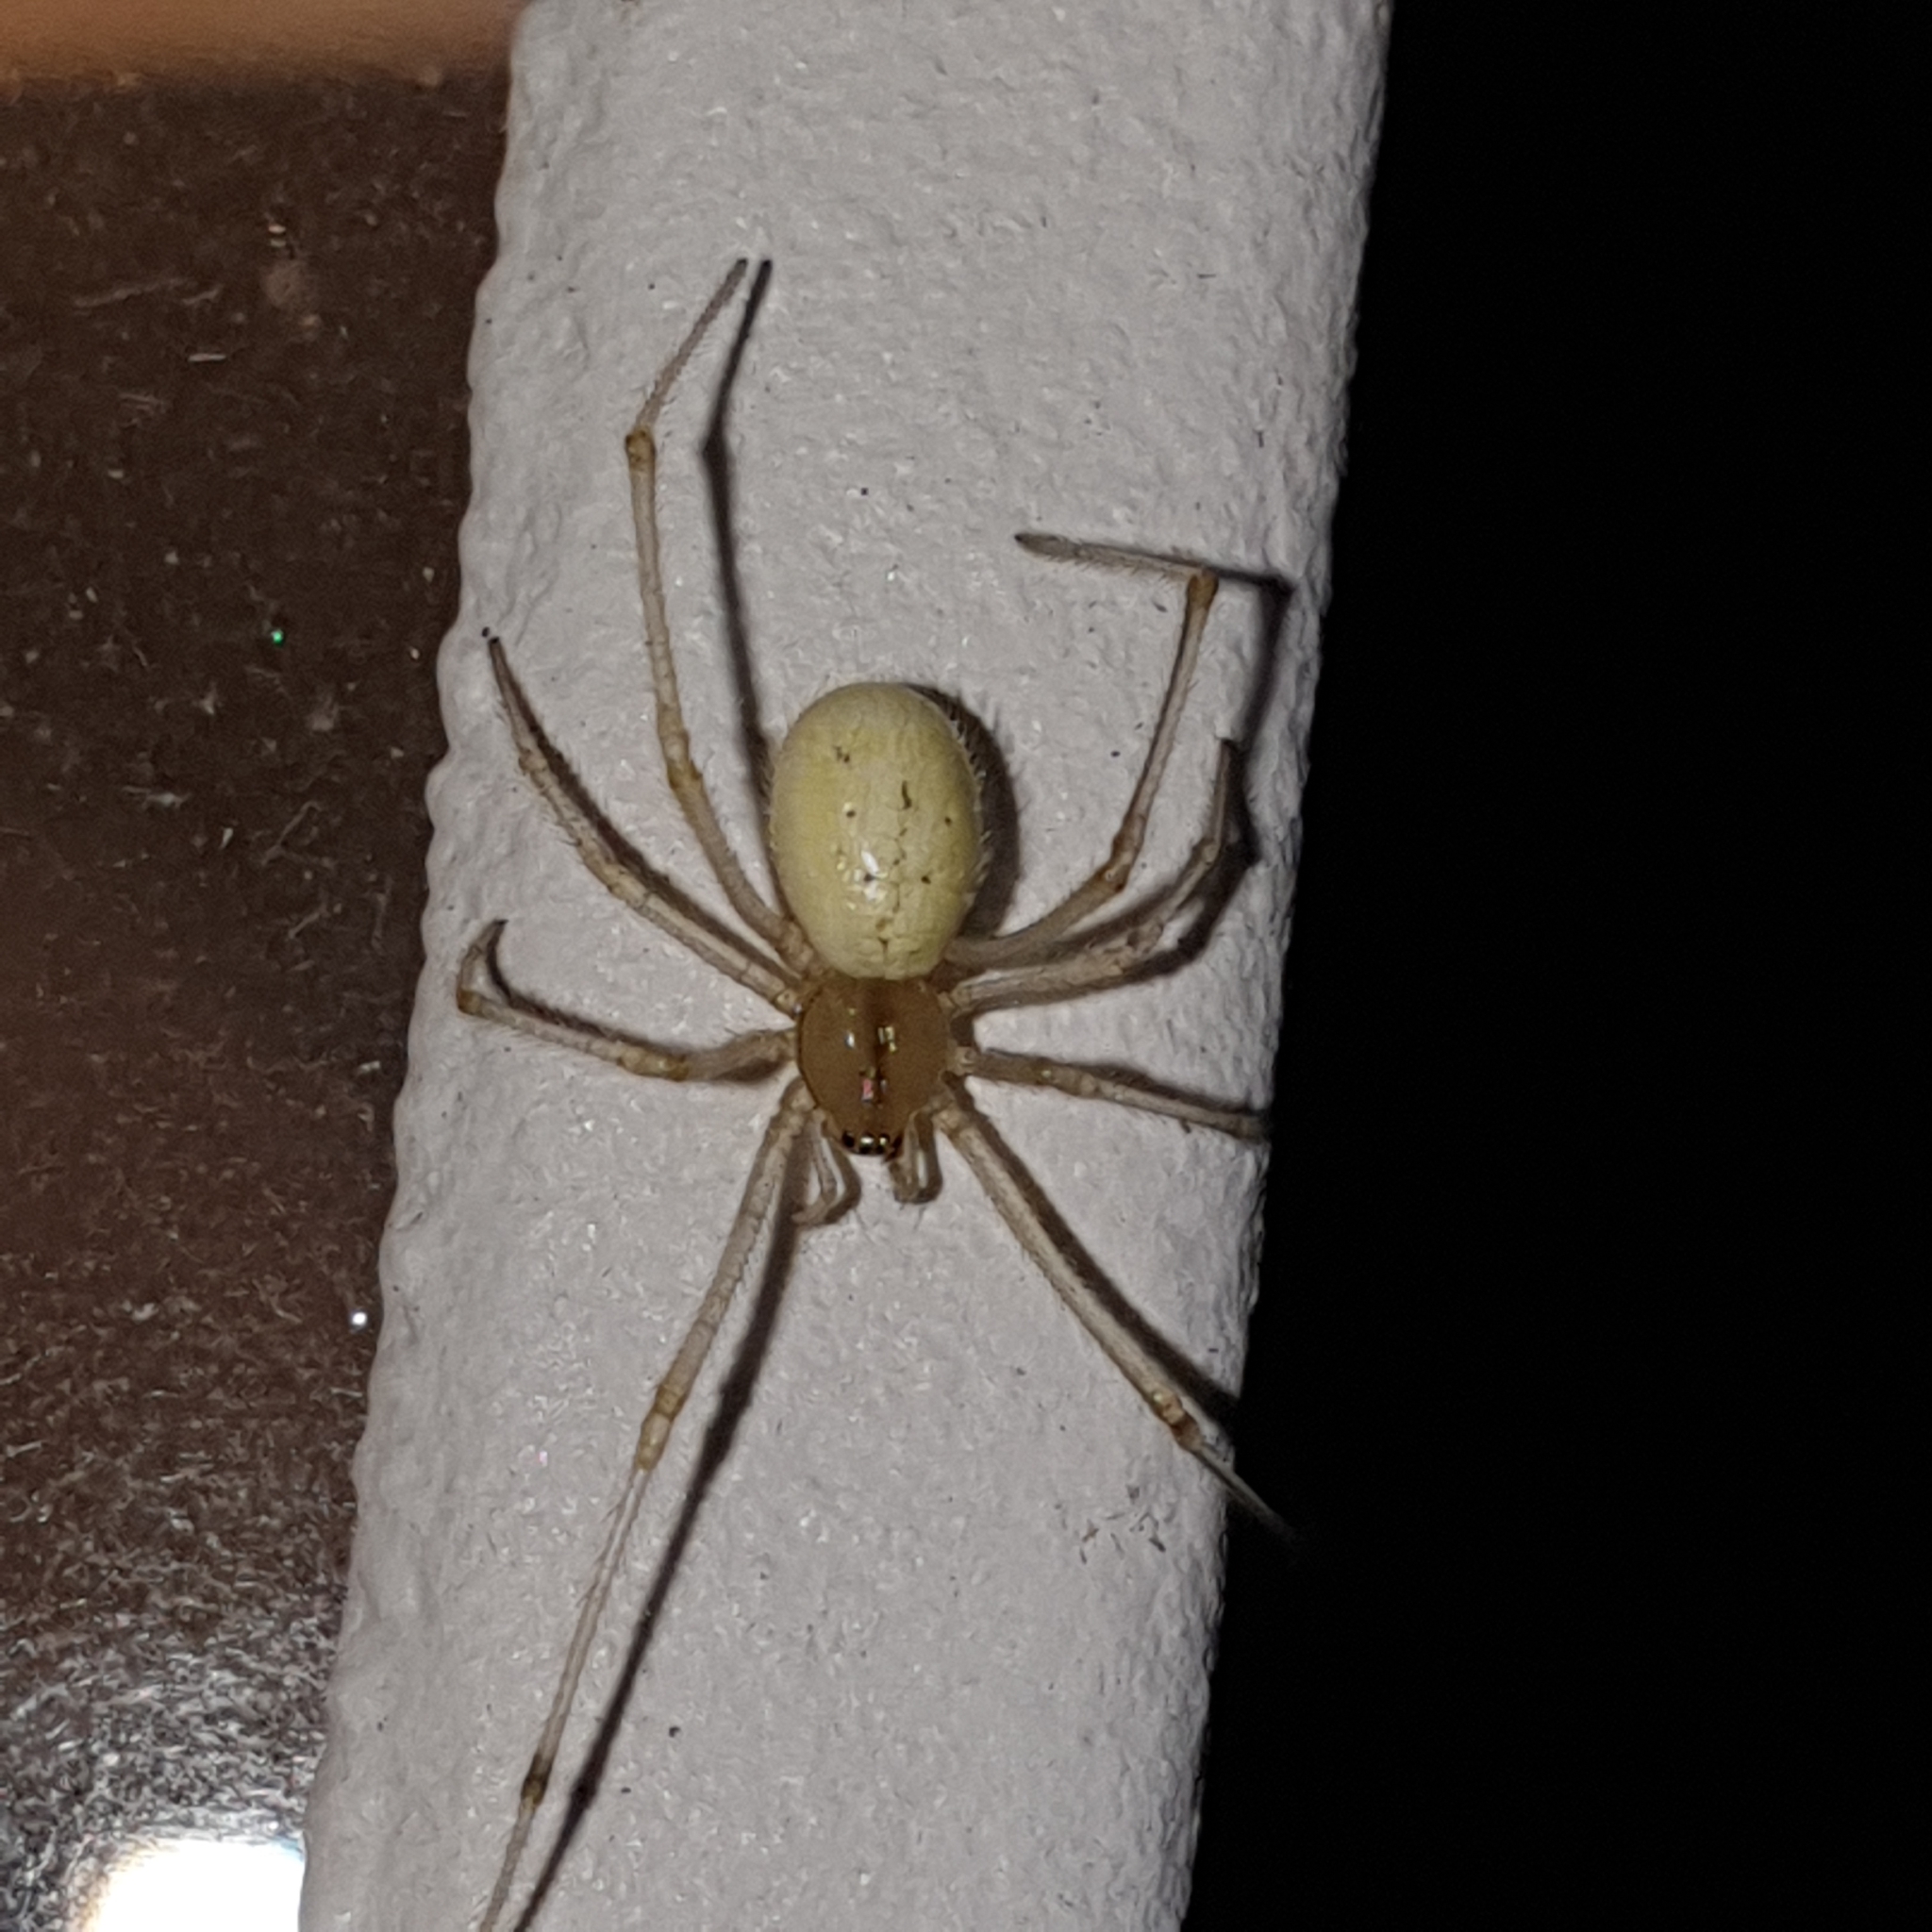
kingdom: Animalia
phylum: Arthropoda
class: Arachnida
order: Araneae
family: Theridiidae
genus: Enoplognatha
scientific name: Enoplognatha ovata
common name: Common candy-striped spider
